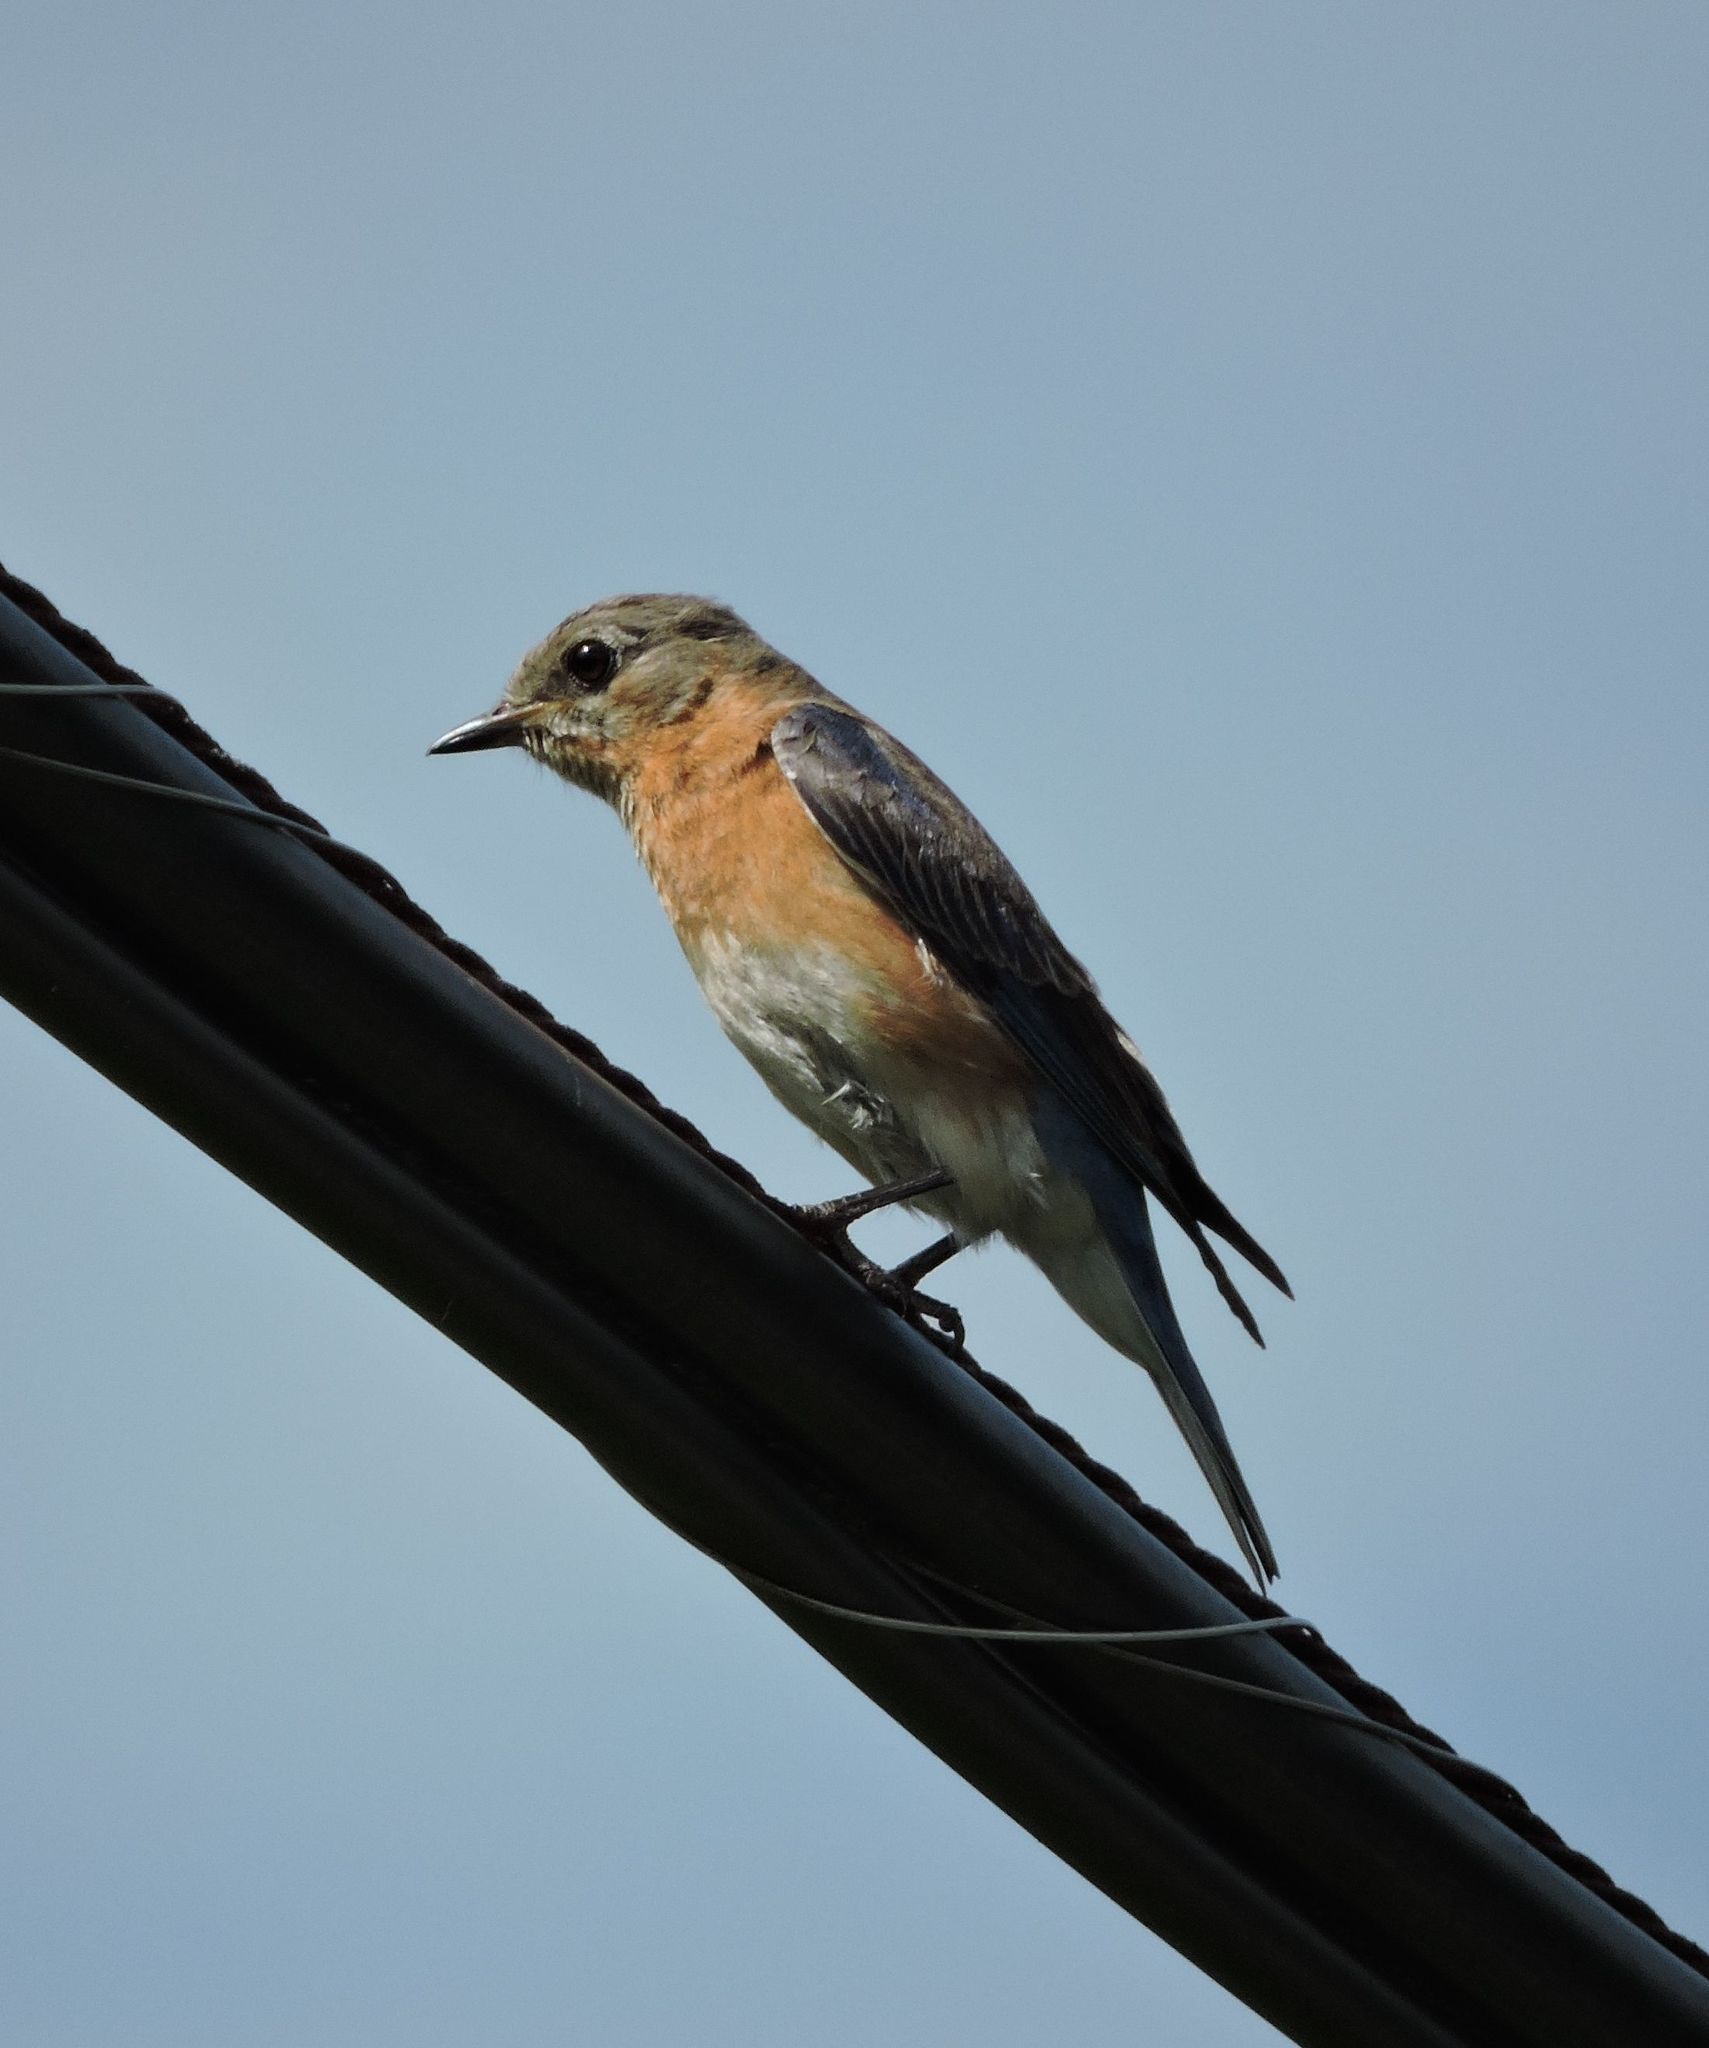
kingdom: Animalia
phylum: Chordata
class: Aves
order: Passeriformes
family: Turdidae
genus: Sialia
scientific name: Sialia sialis
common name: Eastern bluebird
